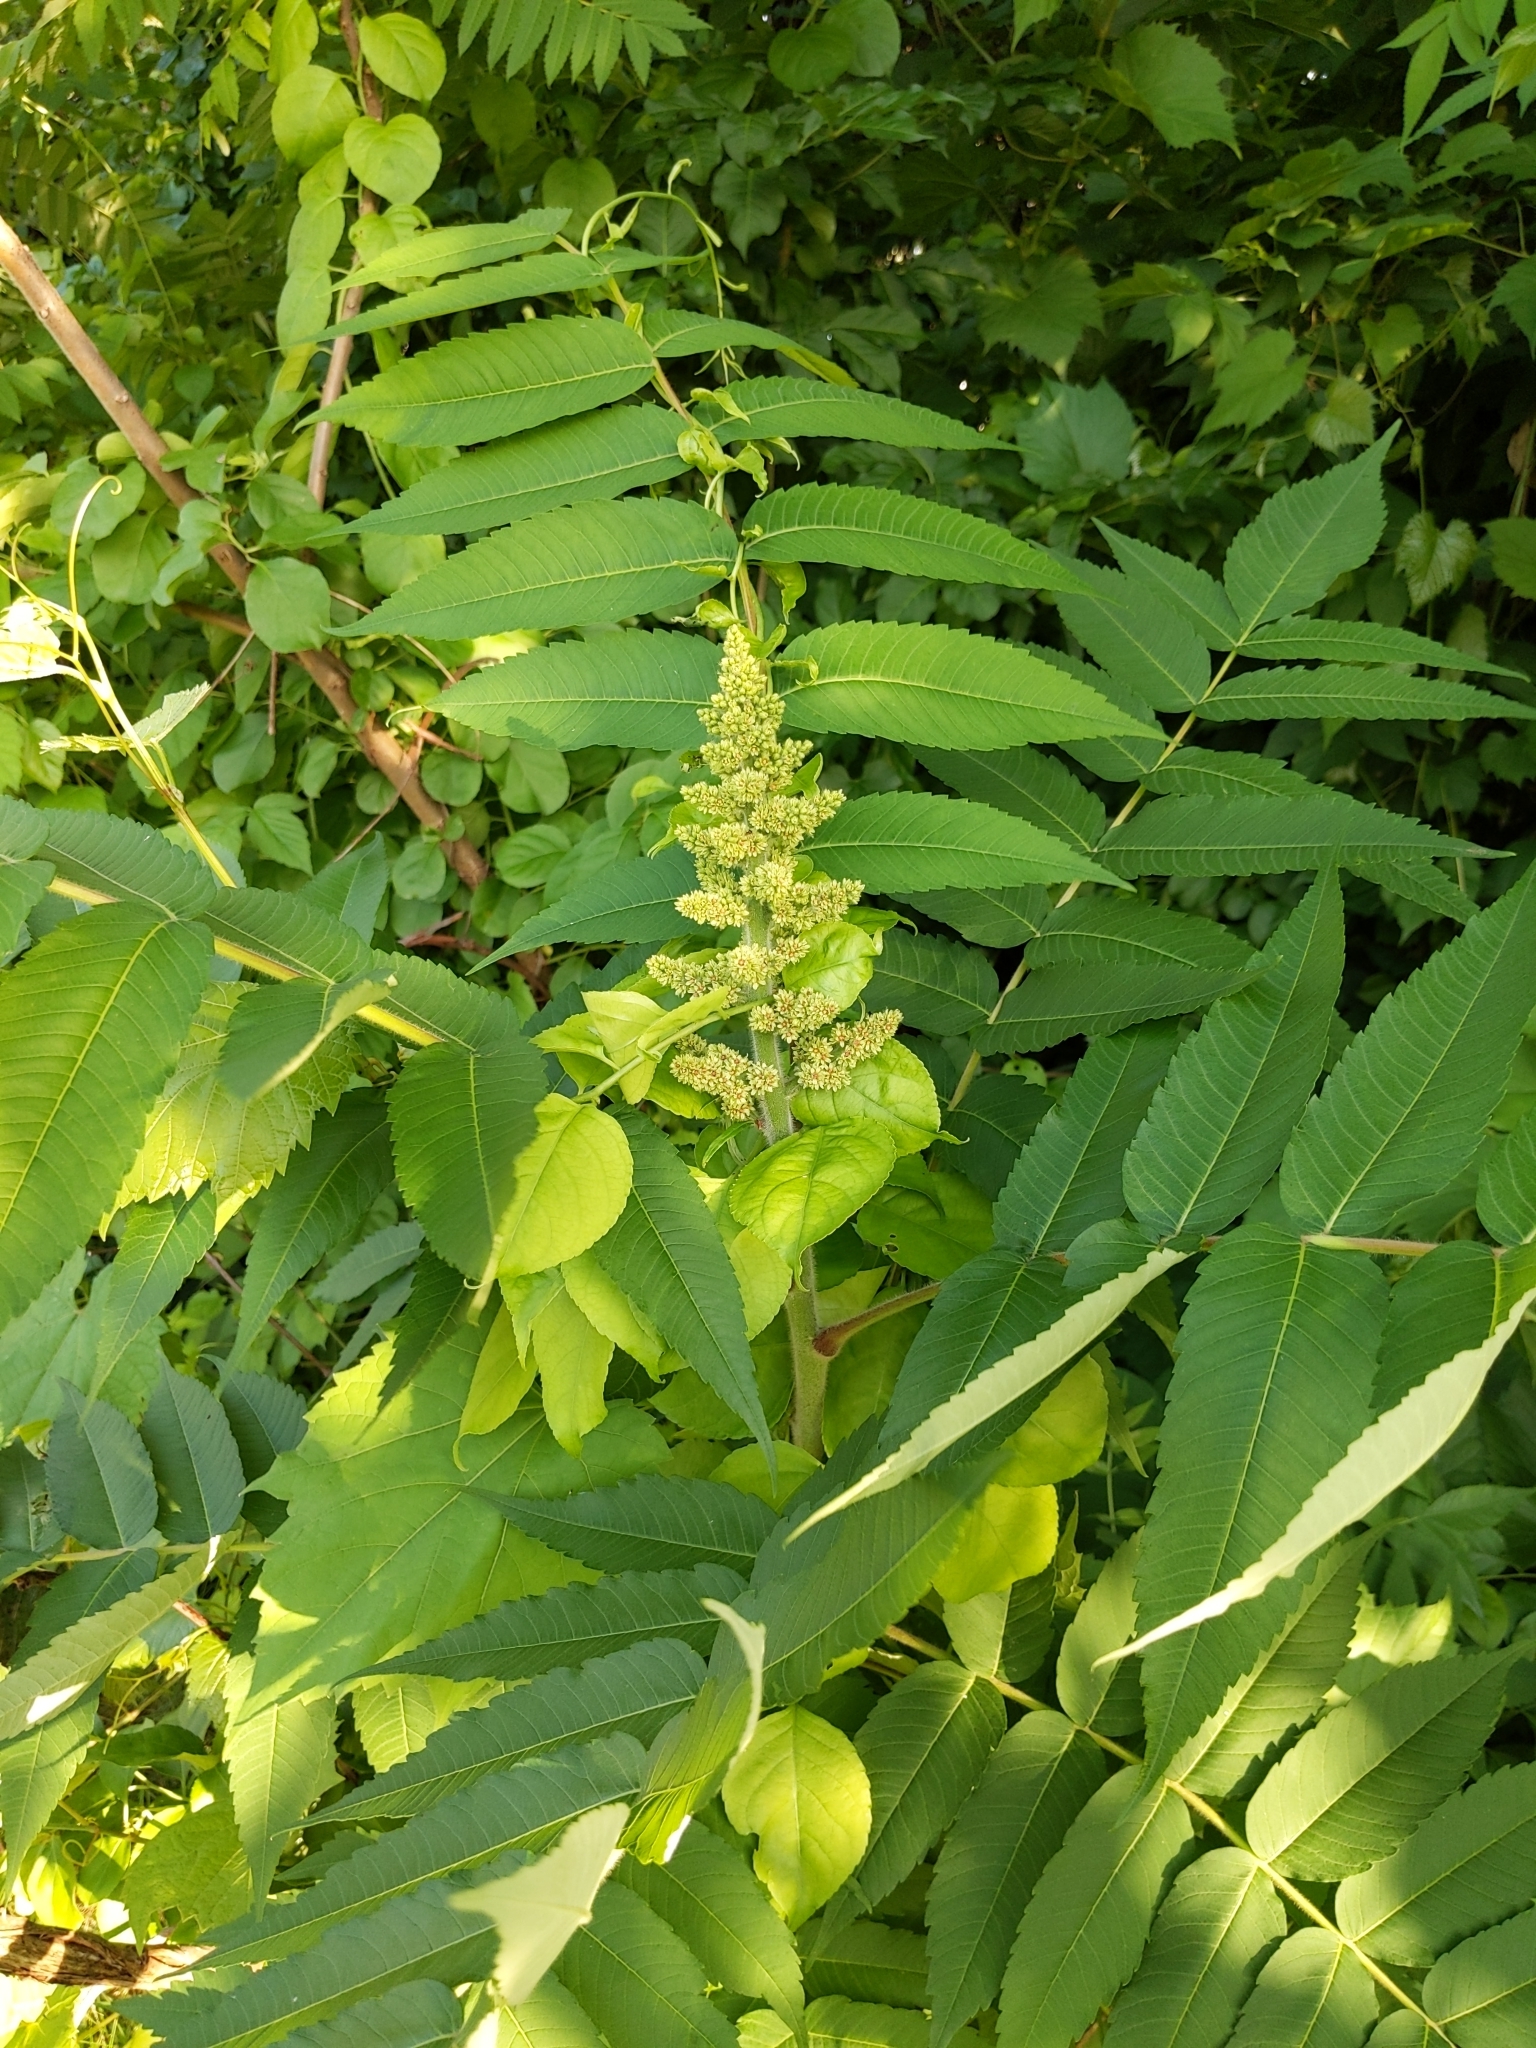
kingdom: Plantae
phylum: Tracheophyta
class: Magnoliopsida
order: Sapindales
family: Anacardiaceae
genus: Rhus
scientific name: Rhus typhina
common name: Staghorn sumac
